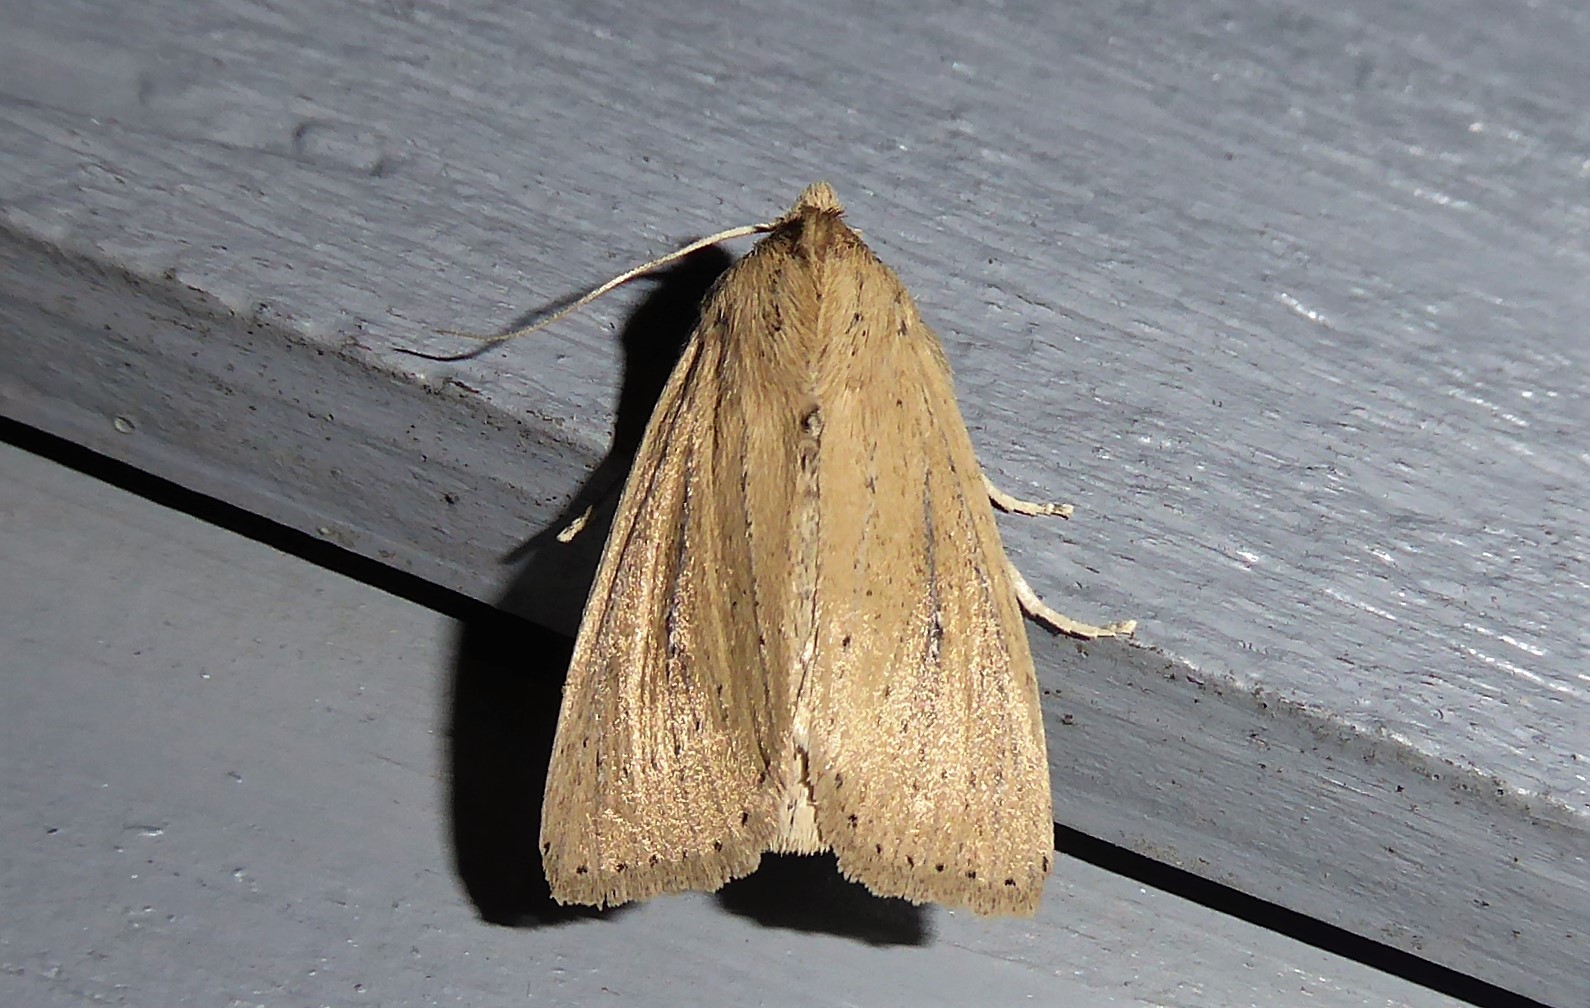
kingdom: Animalia
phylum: Arthropoda
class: Insecta
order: Lepidoptera
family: Noctuidae
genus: Ichneutica
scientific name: Ichneutica
